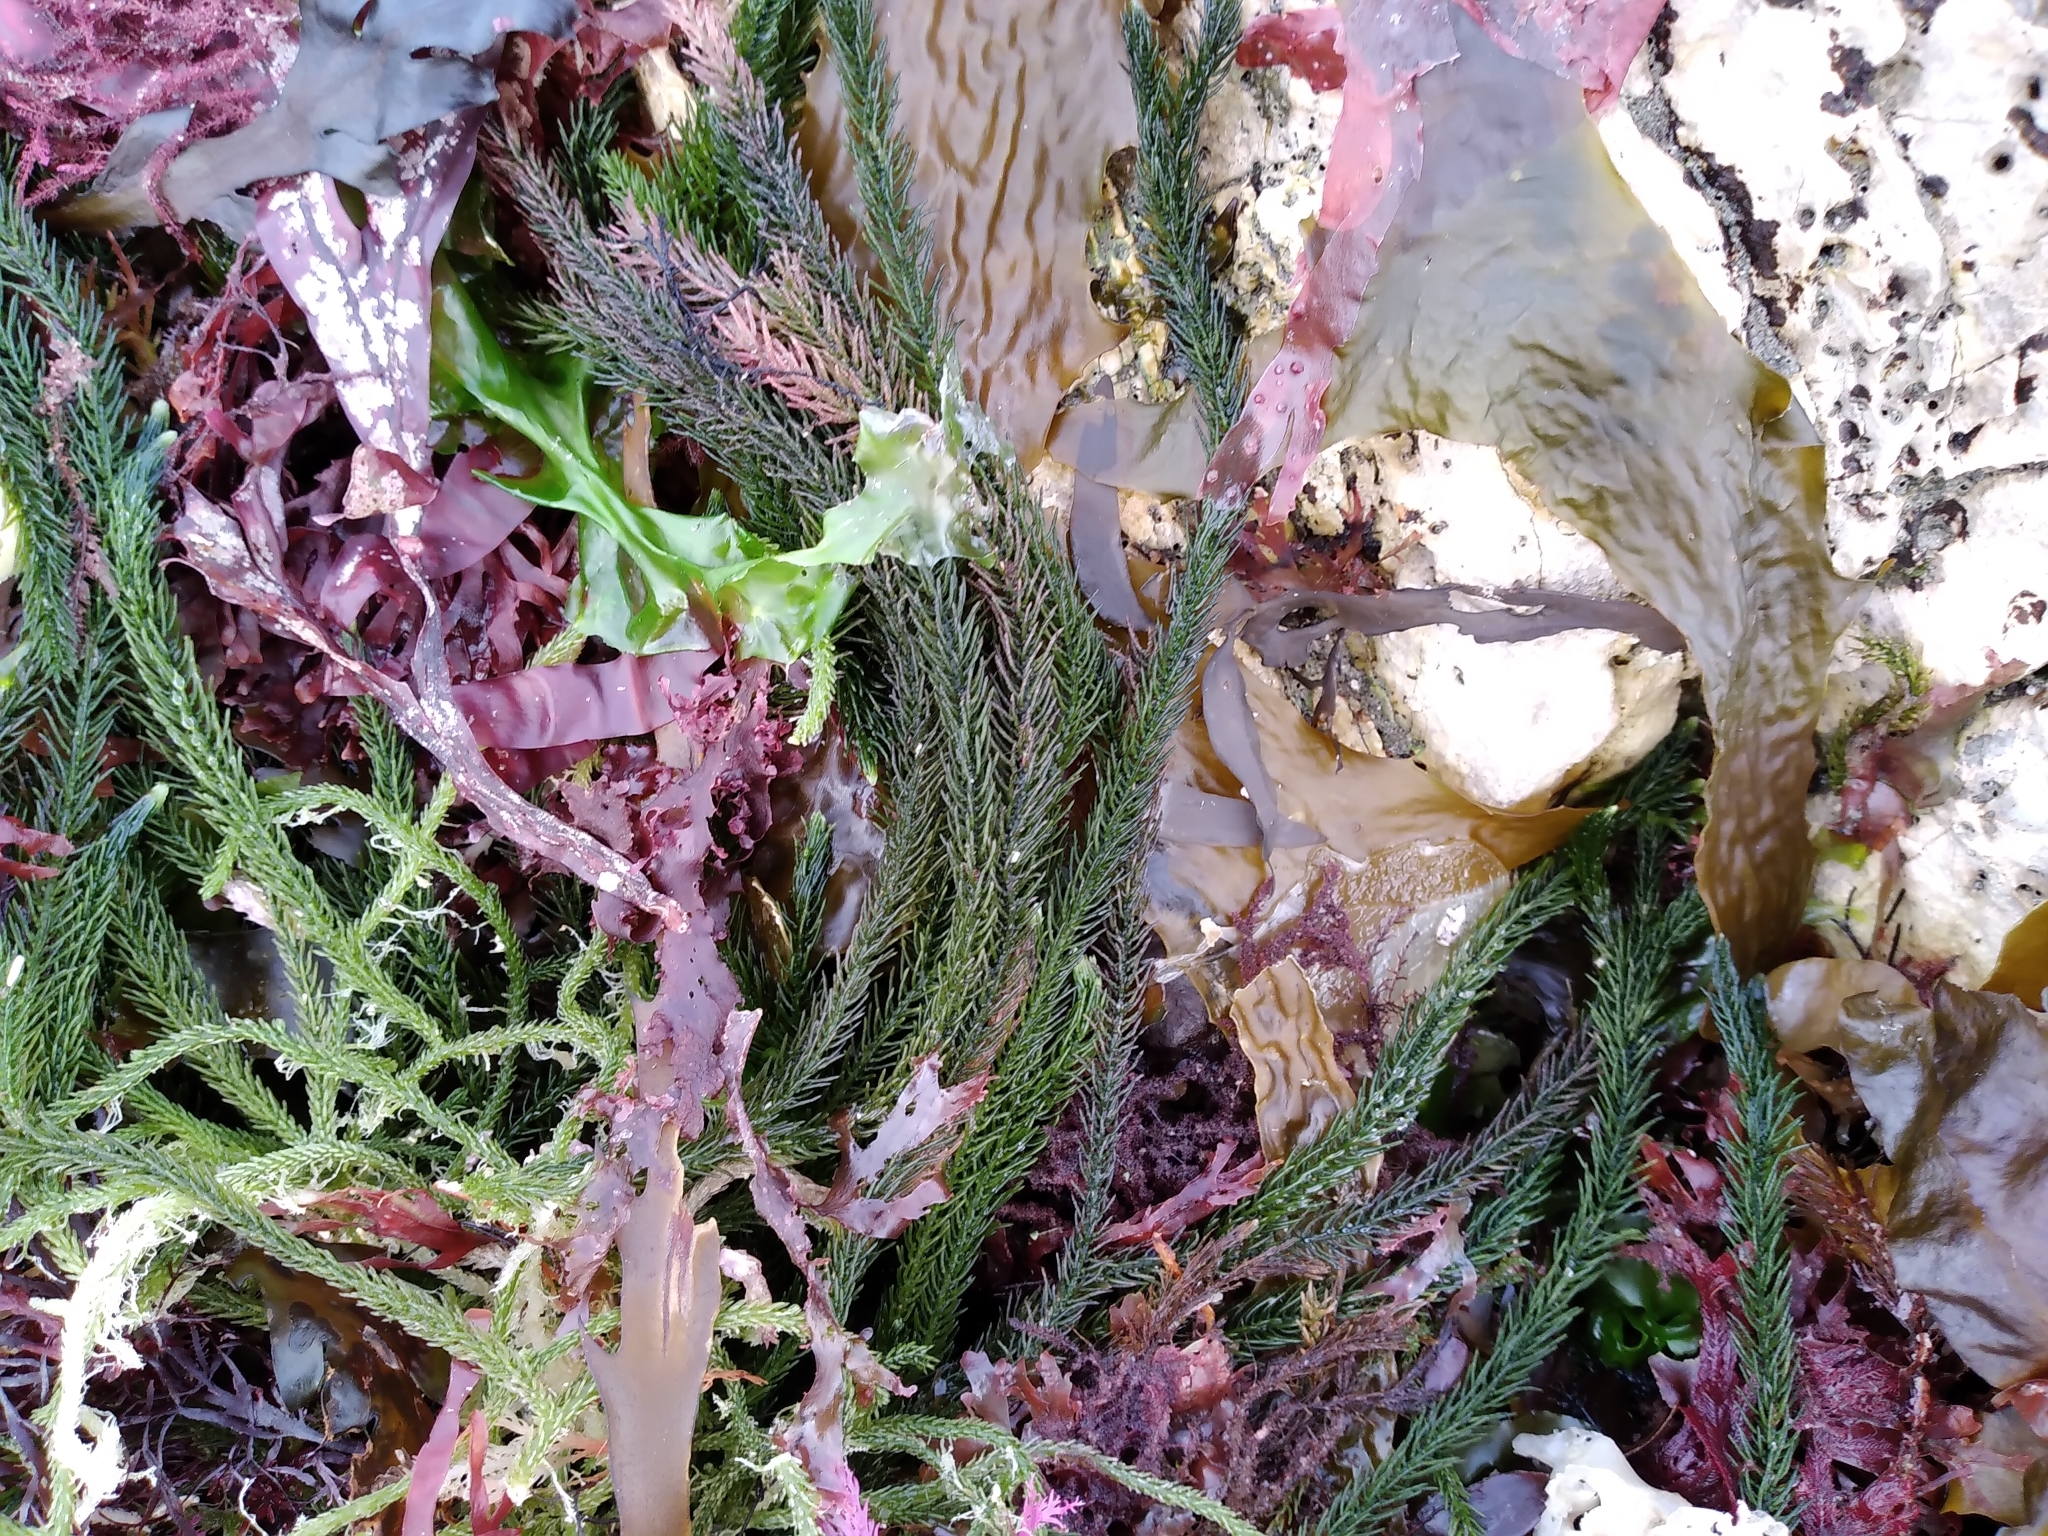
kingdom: Plantae
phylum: Chlorophyta
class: Ulvophyceae
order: Bryopsidales
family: Caulerpaceae
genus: Caulerpa
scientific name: Caulerpa brownii
